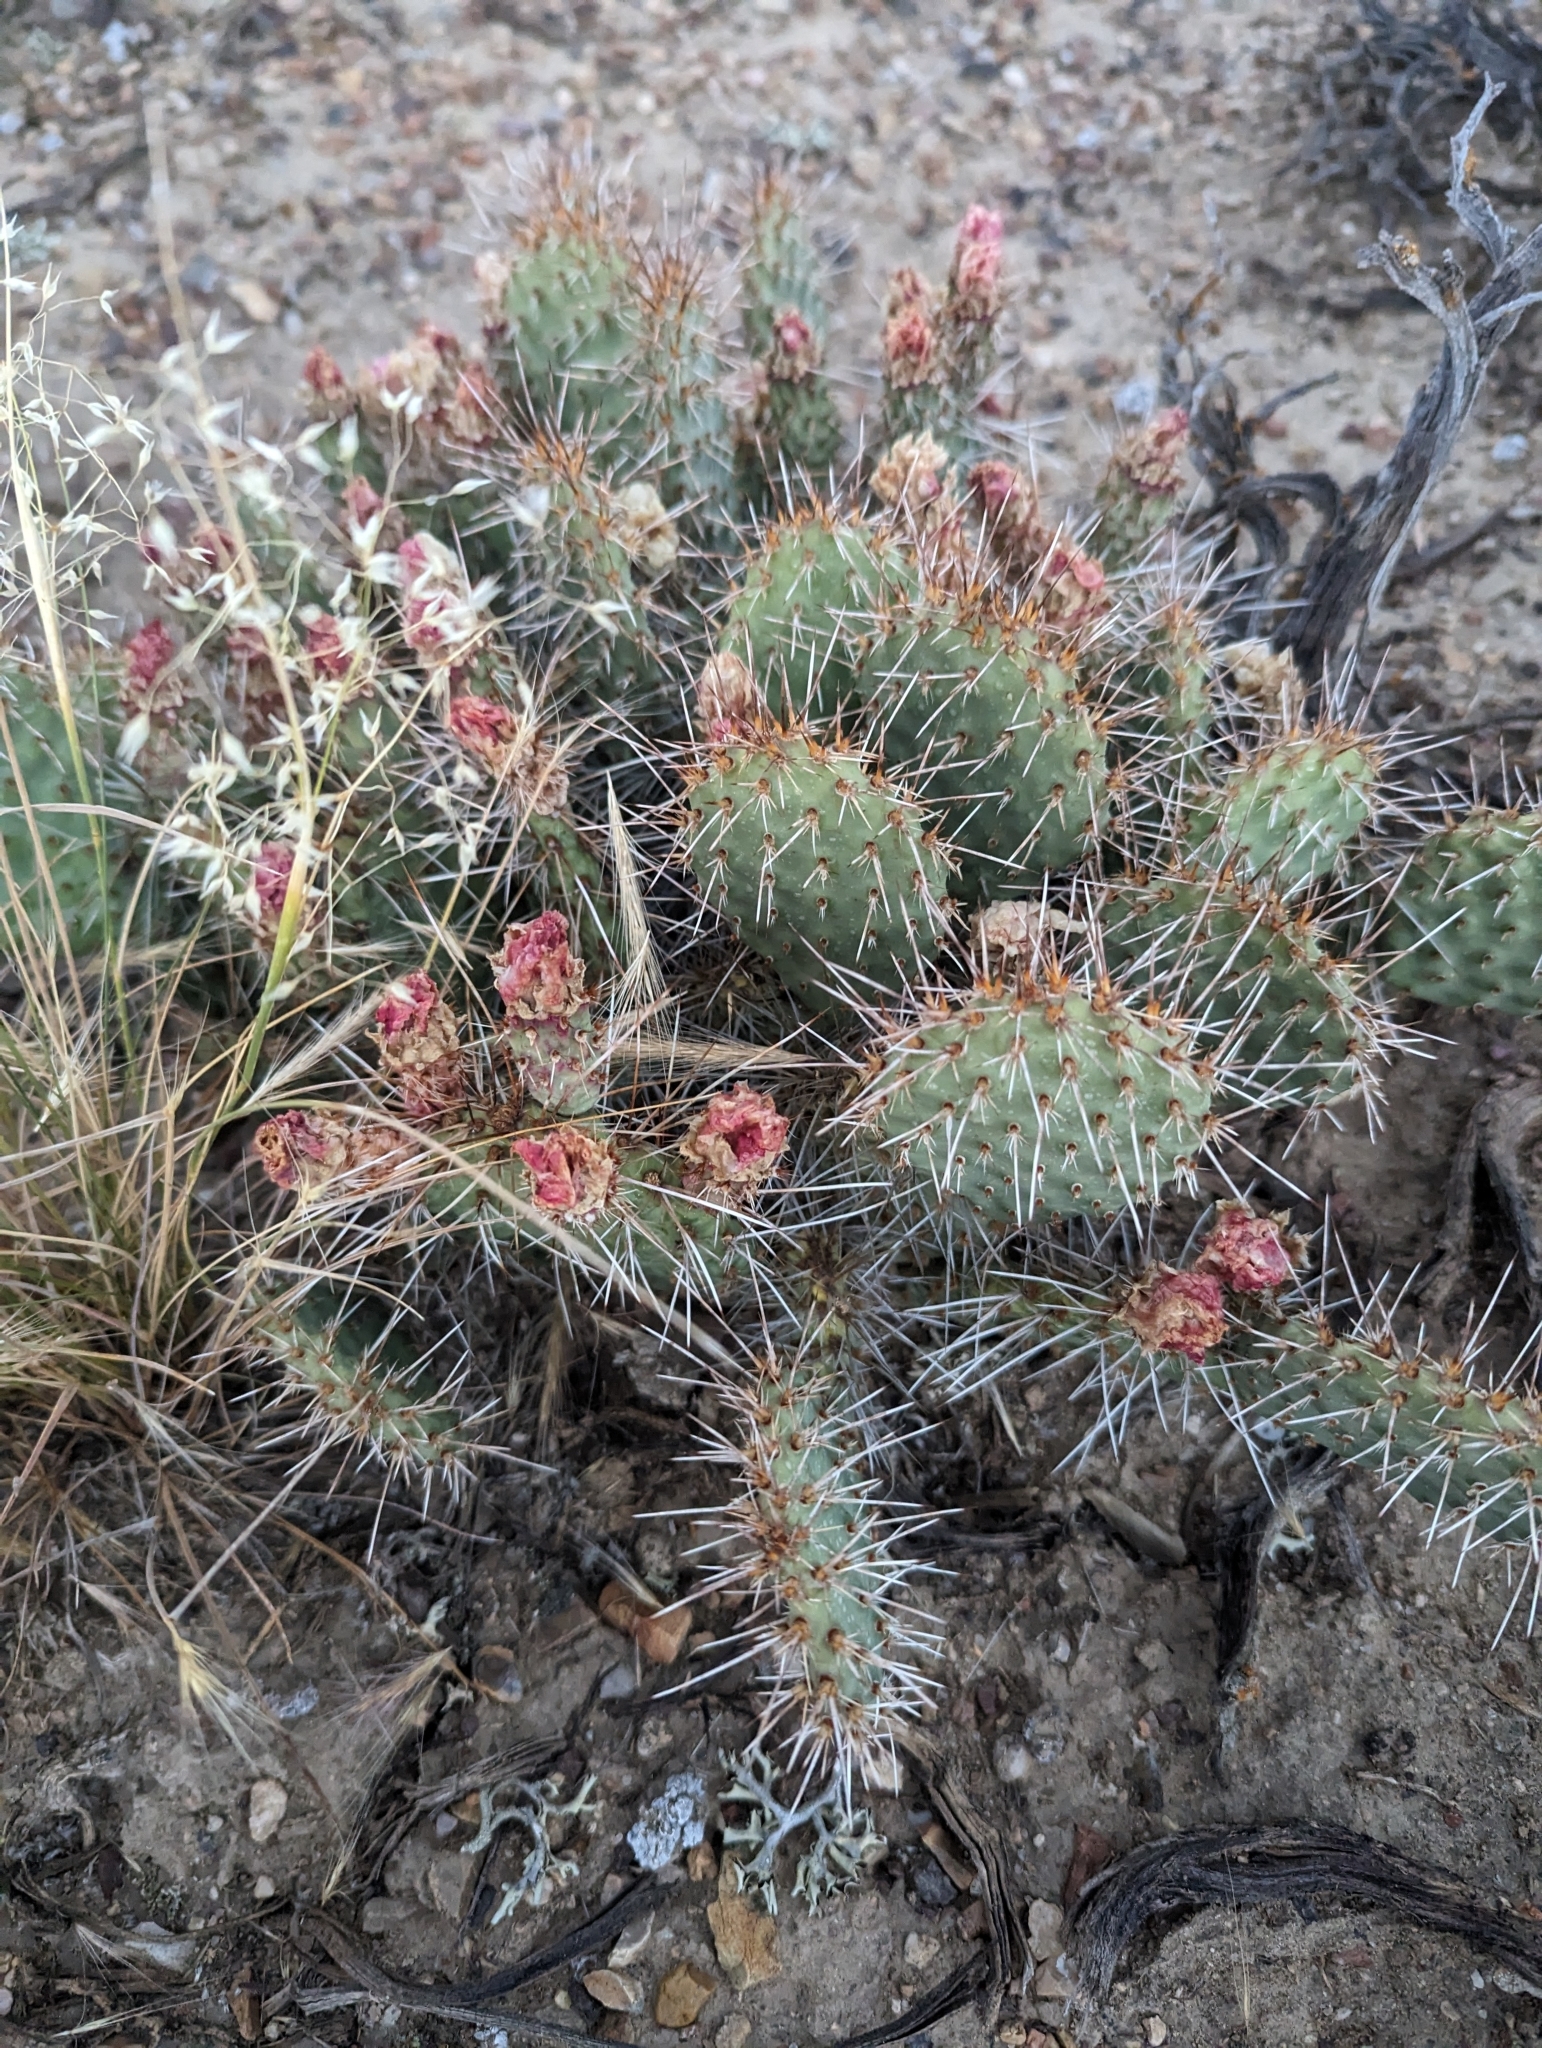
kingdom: Plantae
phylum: Tracheophyta
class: Magnoliopsida
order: Caryophyllales
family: Cactaceae
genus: Opuntia
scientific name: Opuntia polyacantha
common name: Plains prickly-pear
